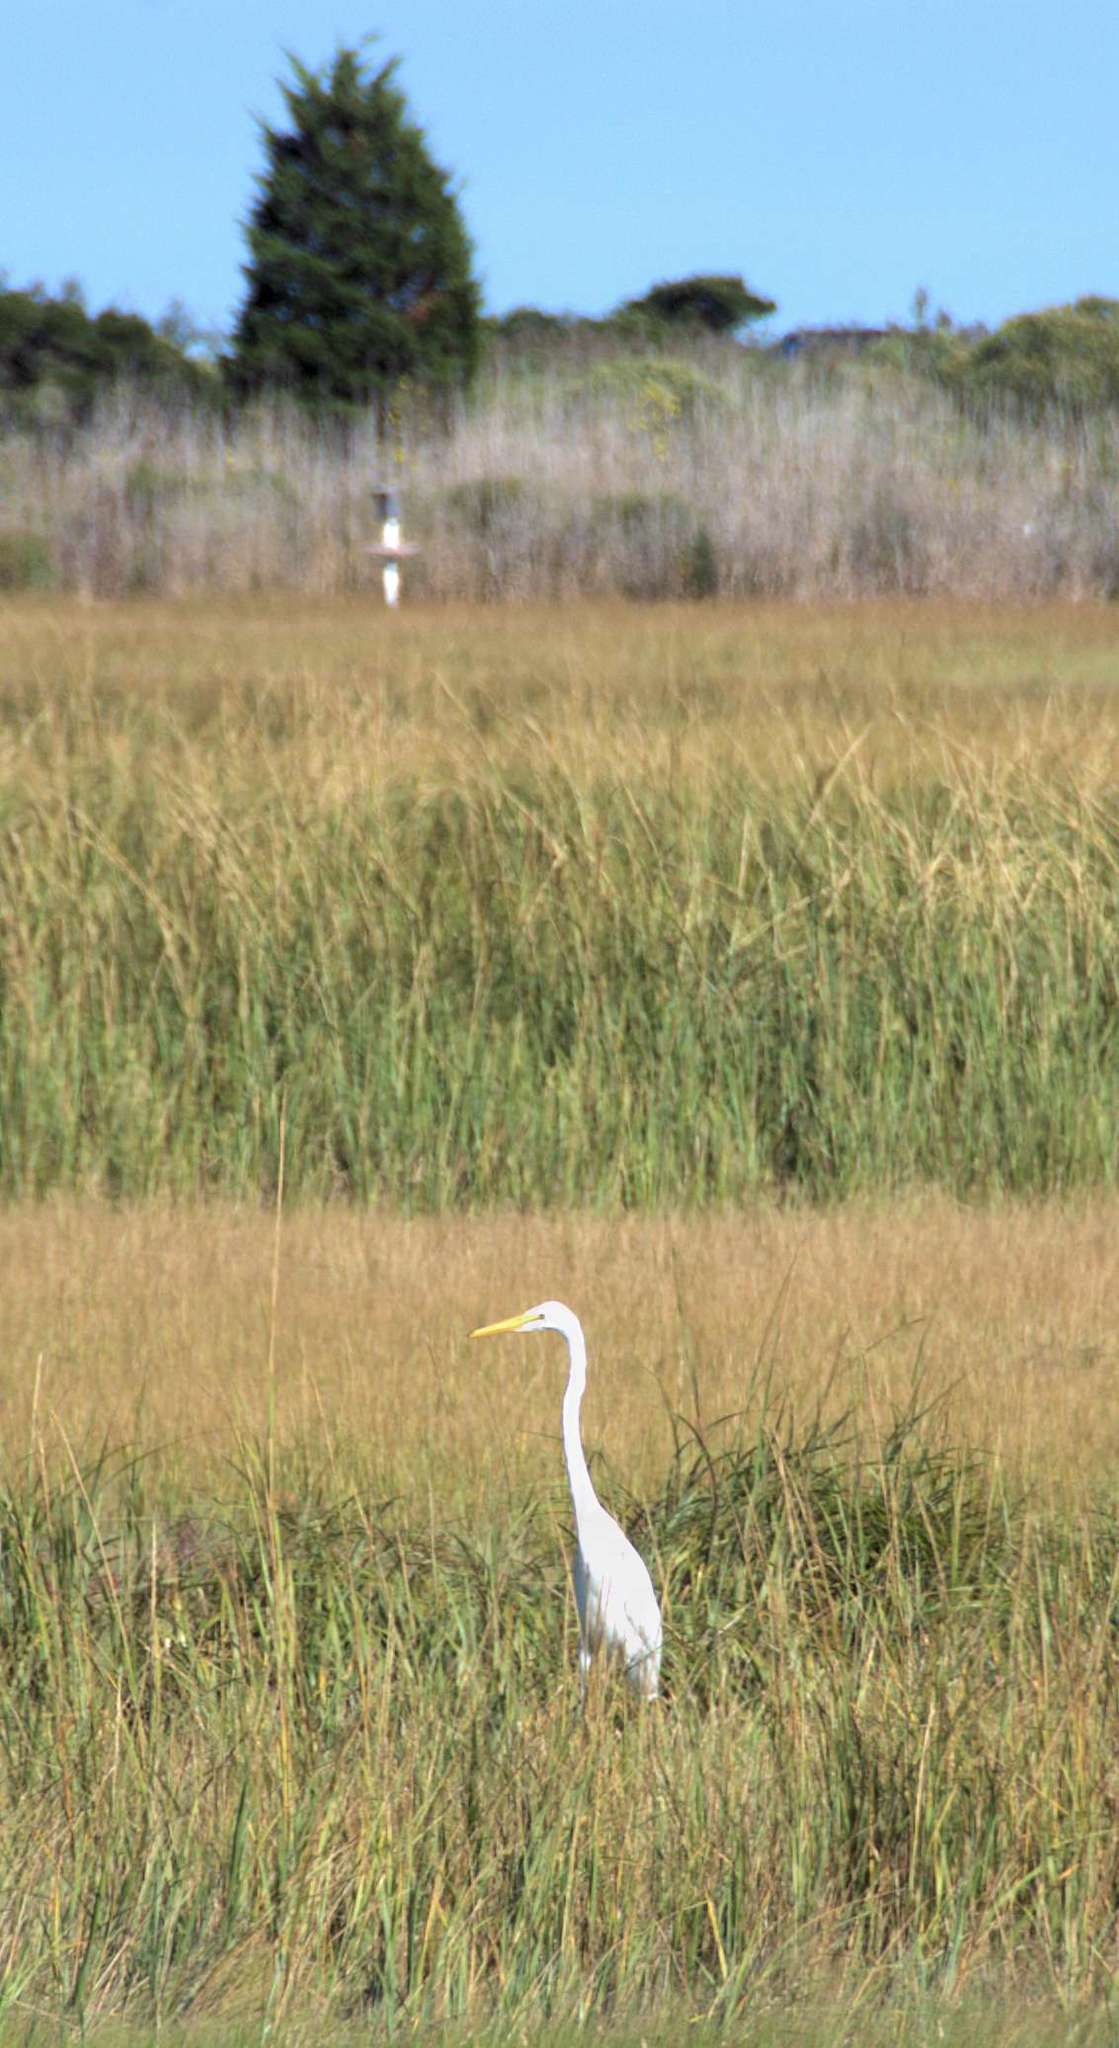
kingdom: Animalia
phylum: Chordata
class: Aves
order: Pelecaniformes
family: Ardeidae
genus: Ardea
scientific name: Ardea alba
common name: Great egret
